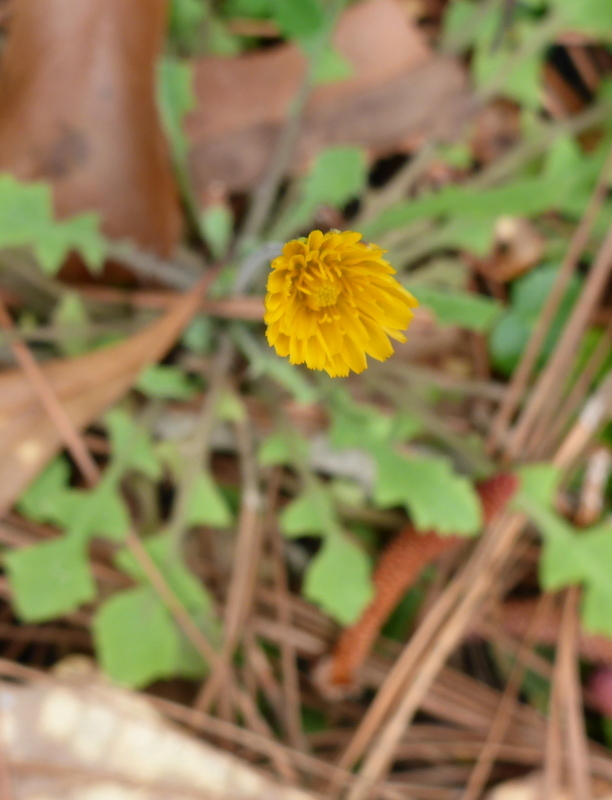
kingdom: Plantae
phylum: Tracheophyta
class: Magnoliopsida
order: Asterales
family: Asteraceae
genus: Krigia
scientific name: Krigia virginica
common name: Virginia dwarf-dandelion
